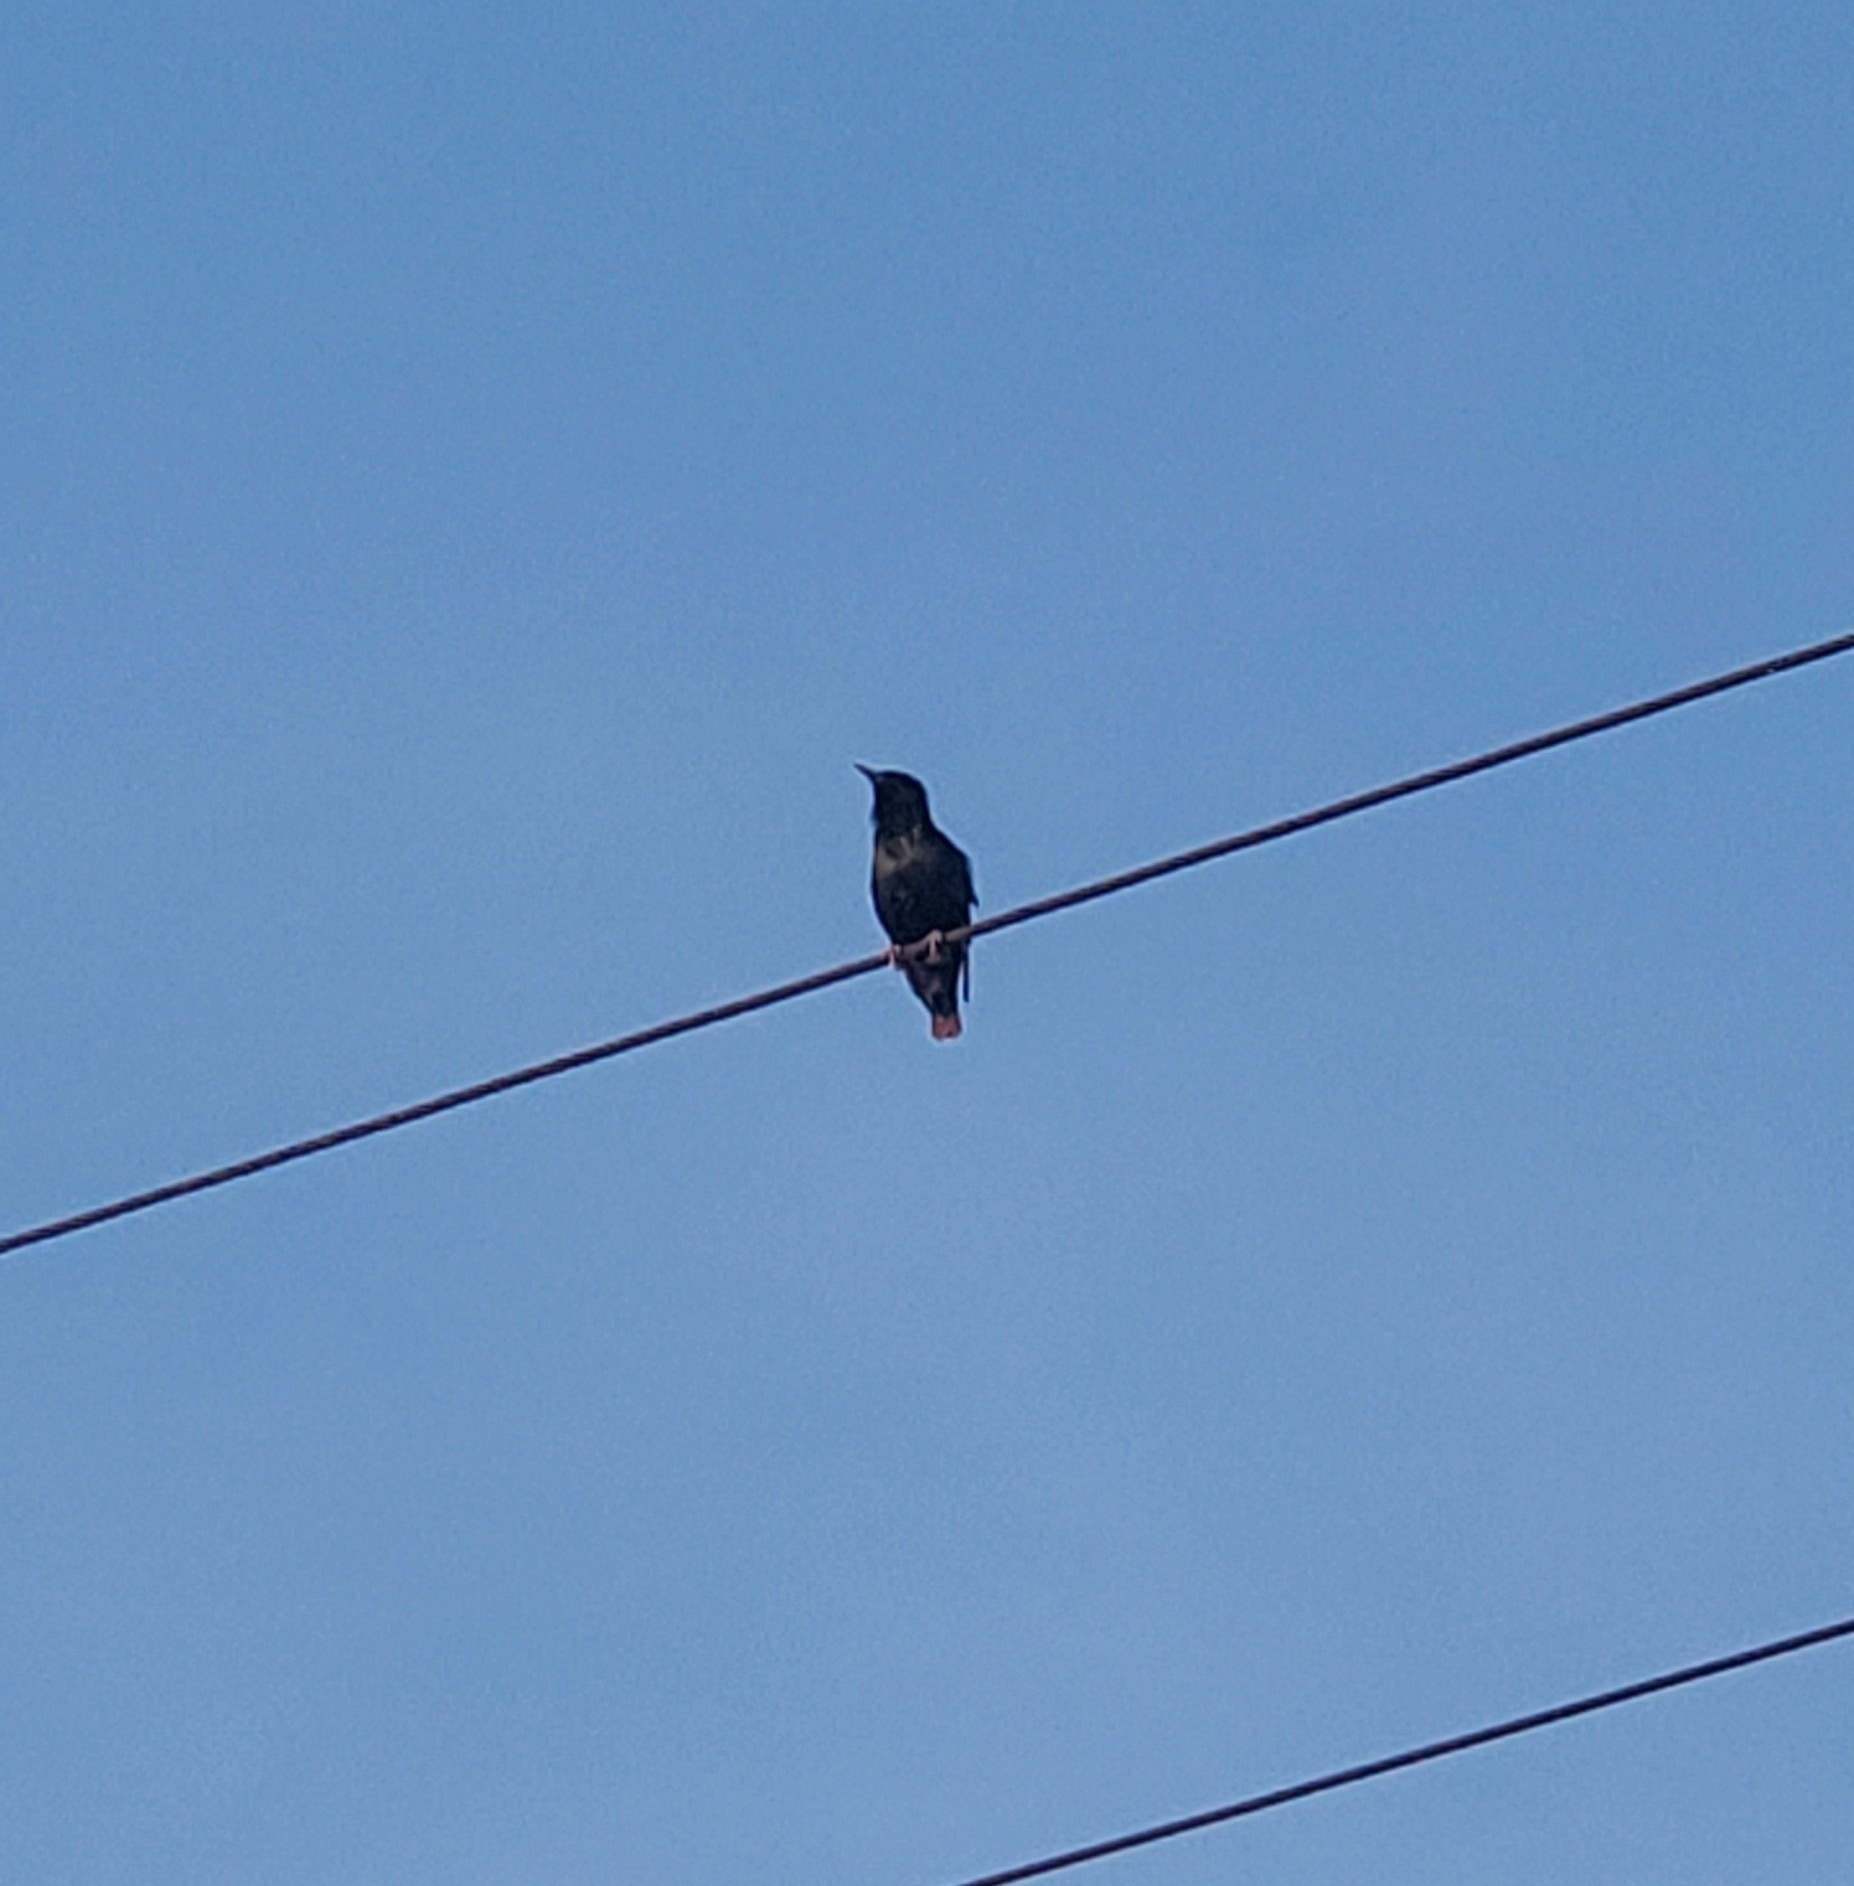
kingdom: Animalia
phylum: Chordata
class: Aves
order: Passeriformes
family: Sturnidae
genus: Sturnus
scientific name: Sturnus vulgaris
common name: Common starling
